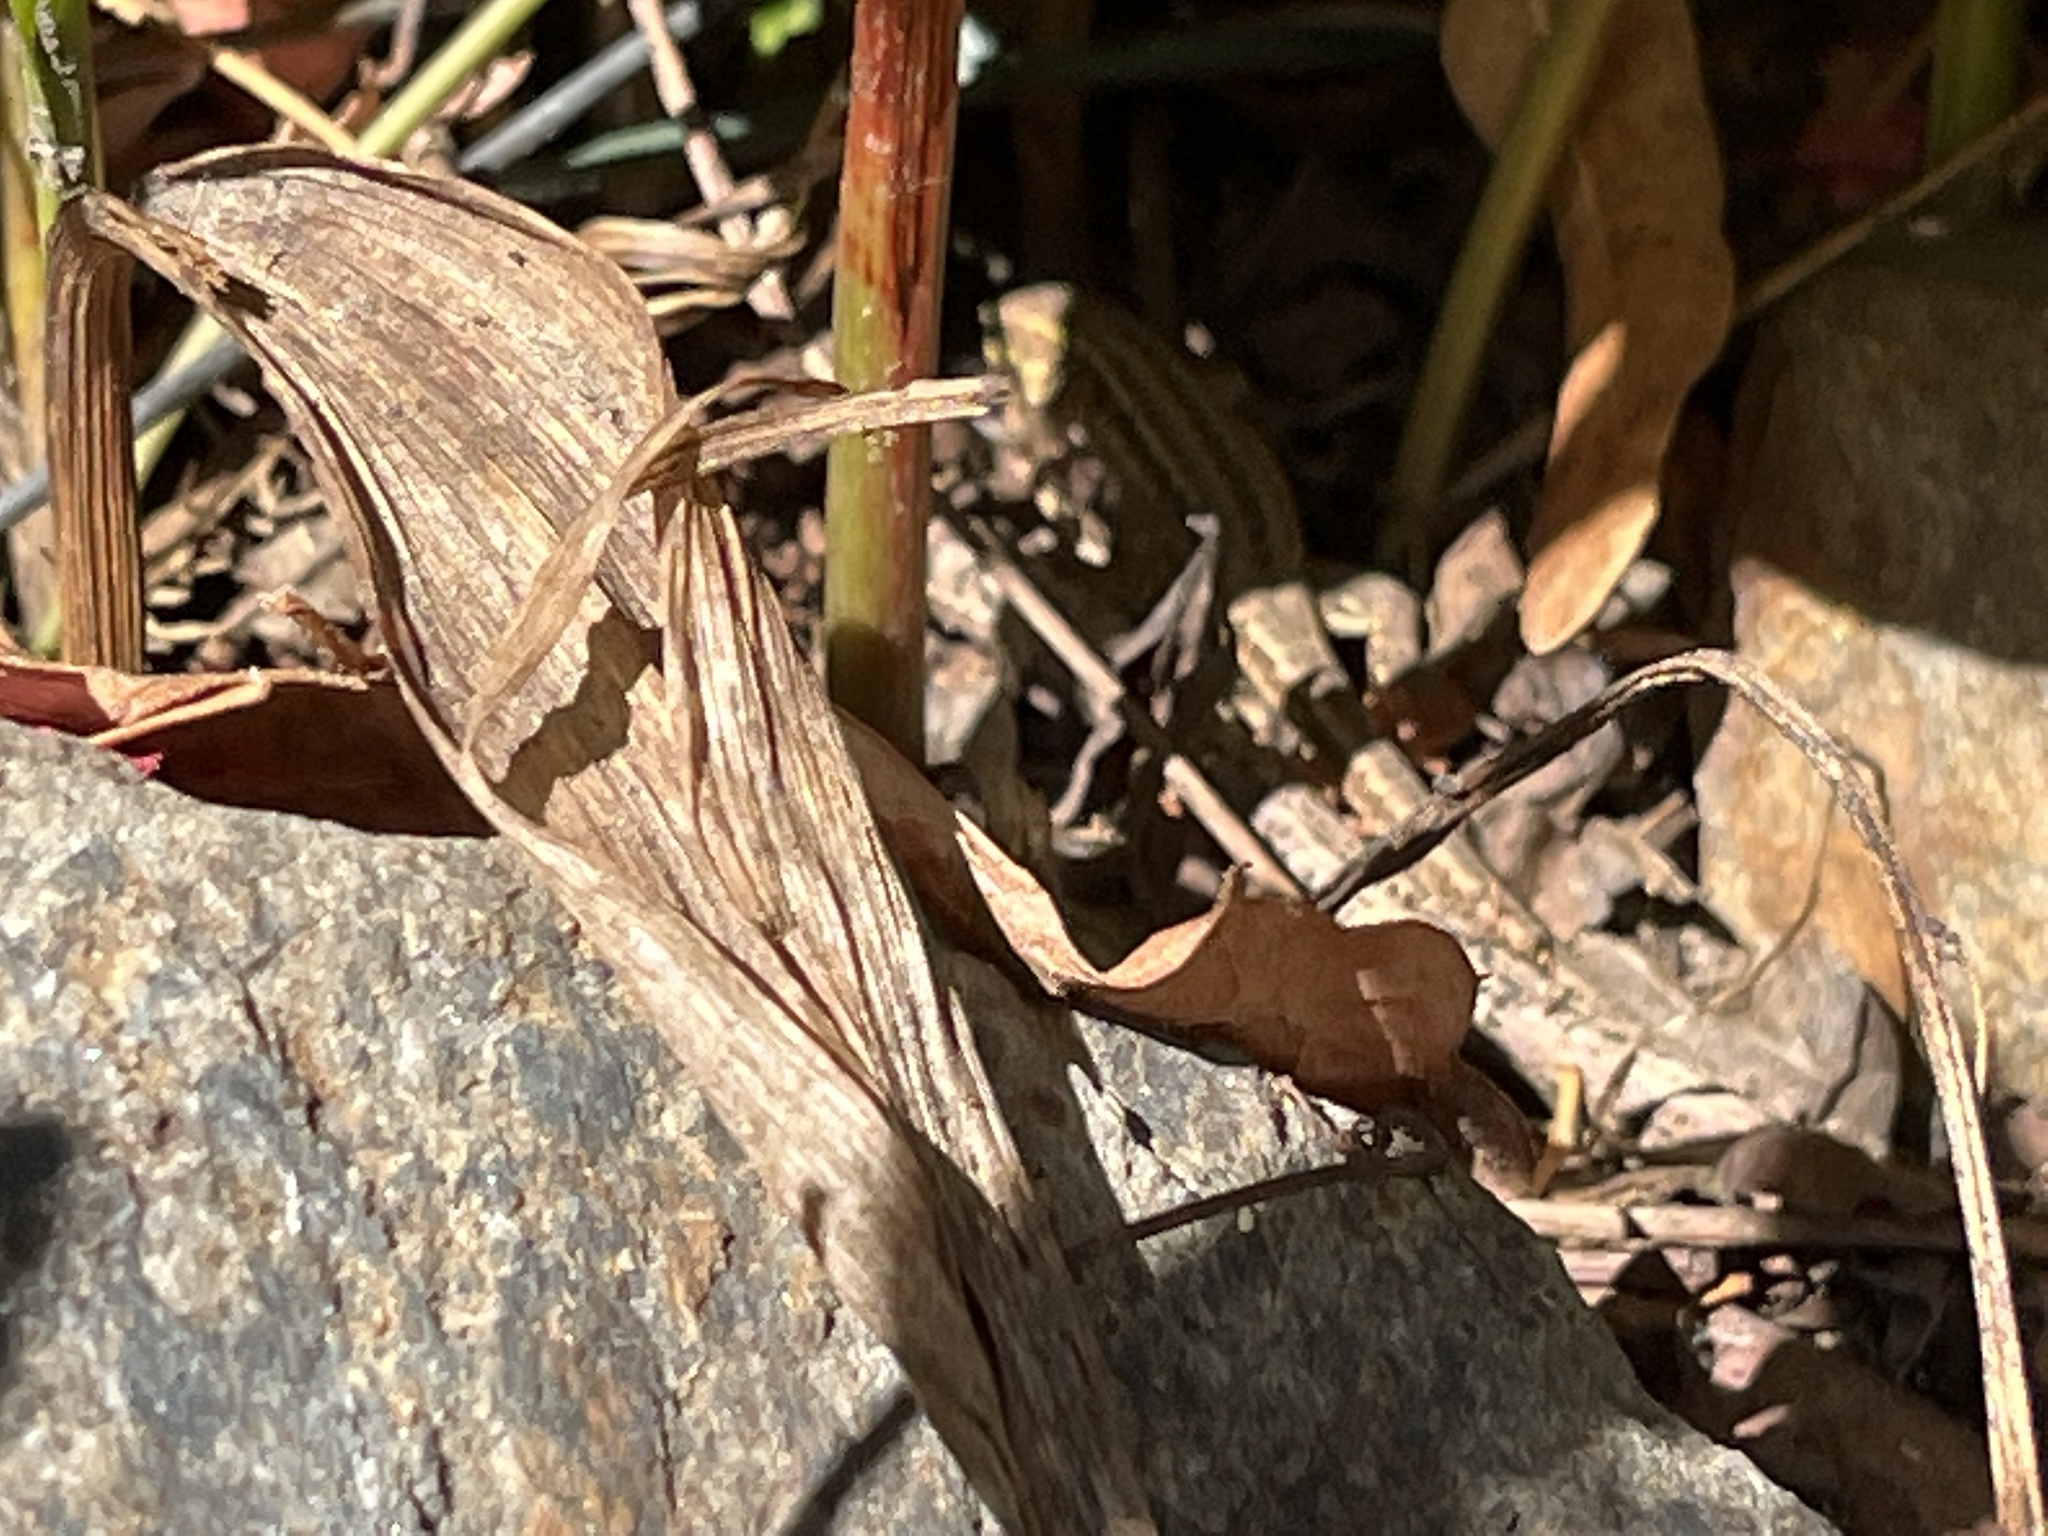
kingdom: Animalia
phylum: Chordata
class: Squamata
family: Lacertidae
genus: Podarcis
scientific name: Podarcis siculus
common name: Italian wall lizard
